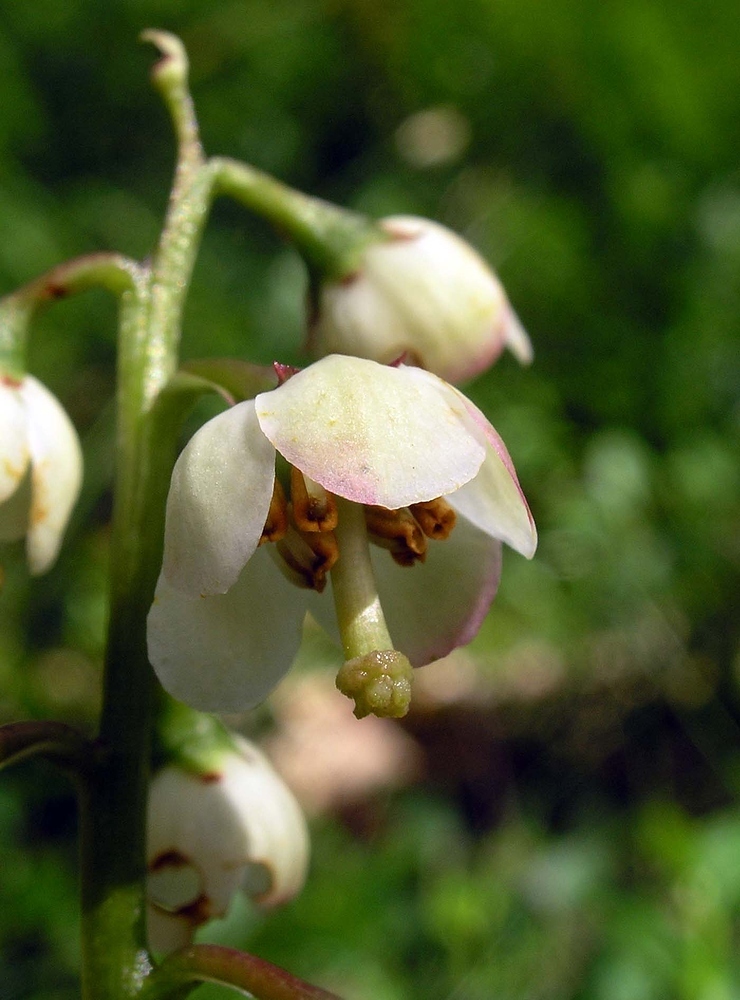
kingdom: Plantae
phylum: Tracheophyta
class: Magnoliopsida
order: Ericales
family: Ericaceae
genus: Pyrola
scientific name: Pyrola media
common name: Intermediate wintergreen
